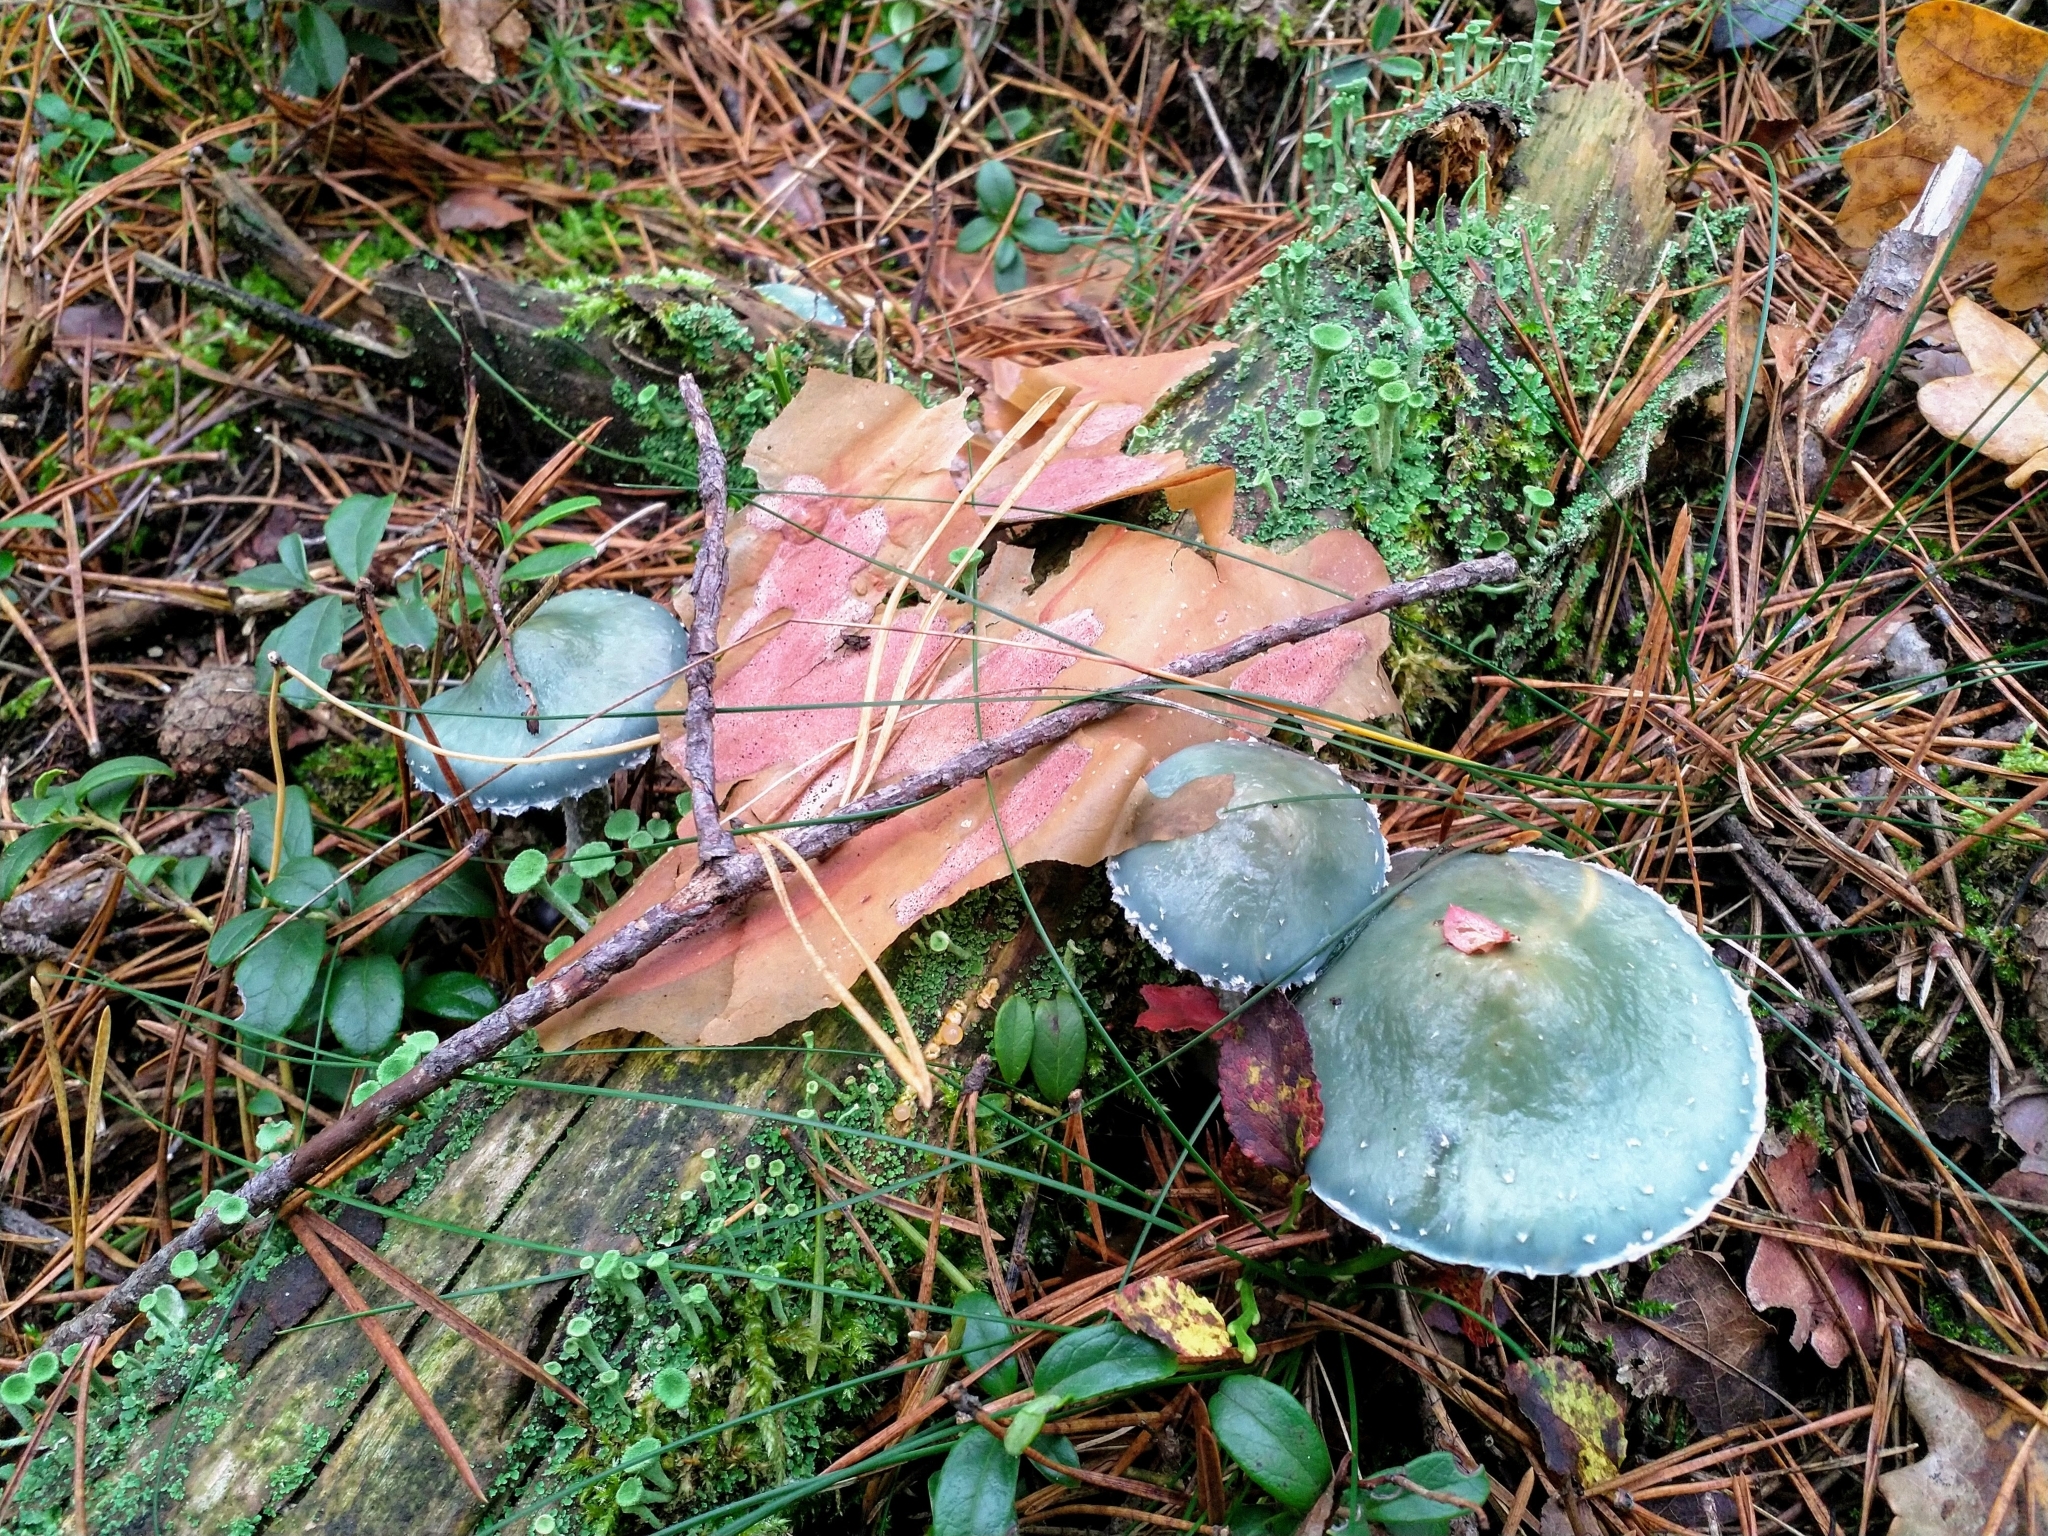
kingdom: Fungi
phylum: Basidiomycota
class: Agaricomycetes
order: Agaricales
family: Strophariaceae
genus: Stropharia
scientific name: Stropharia aeruginosa
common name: Verdigris roundhead
